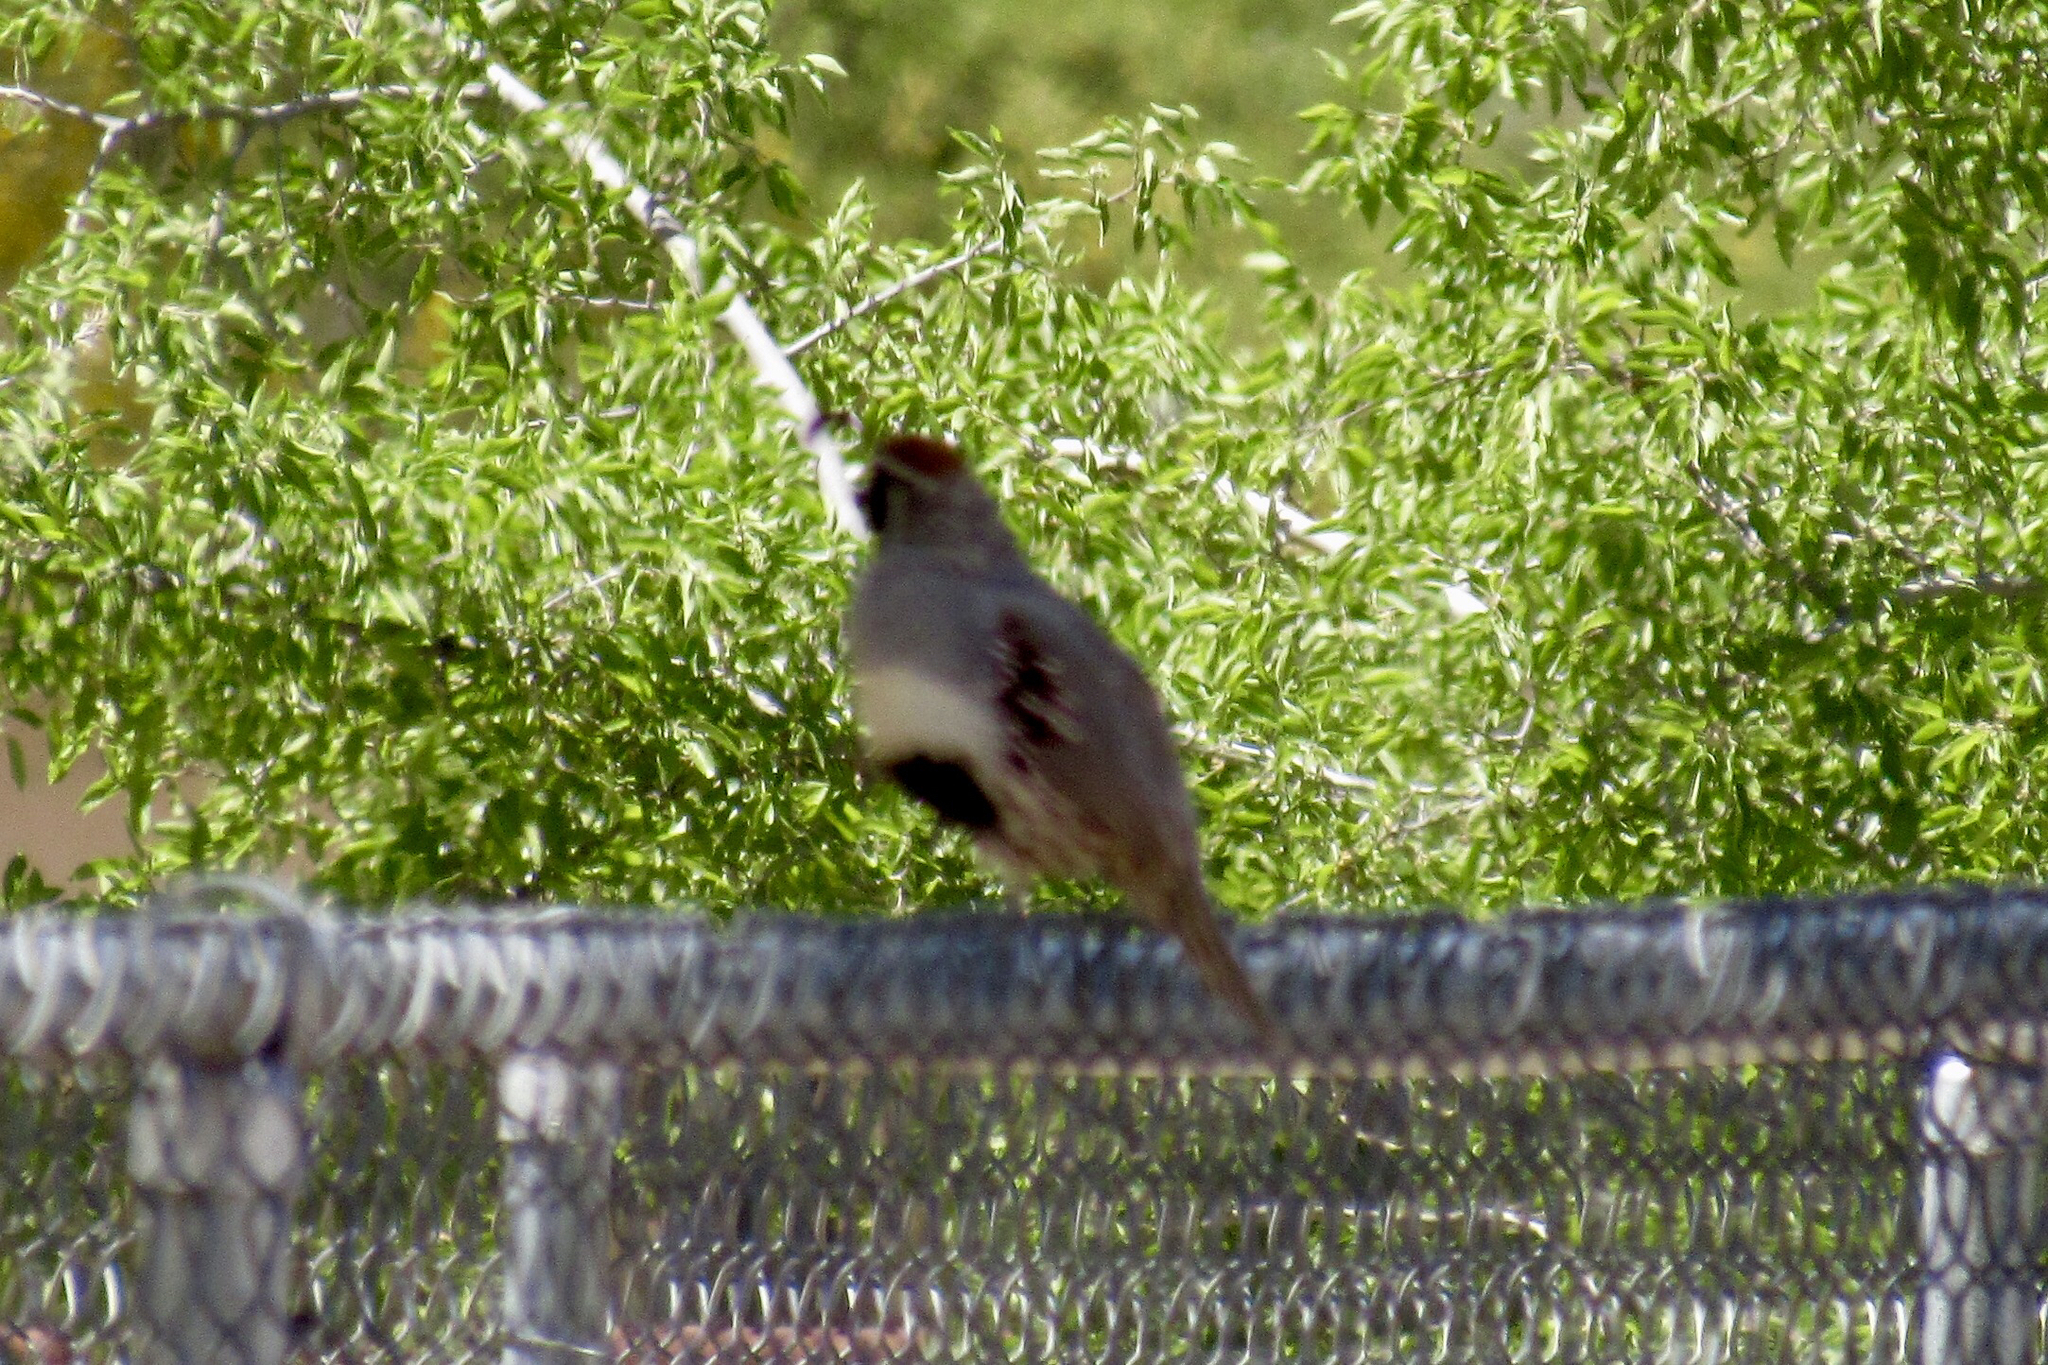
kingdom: Animalia
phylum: Chordata
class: Aves
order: Galliformes
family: Odontophoridae
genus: Callipepla
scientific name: Callipepla gambelii
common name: Gambel's quail
